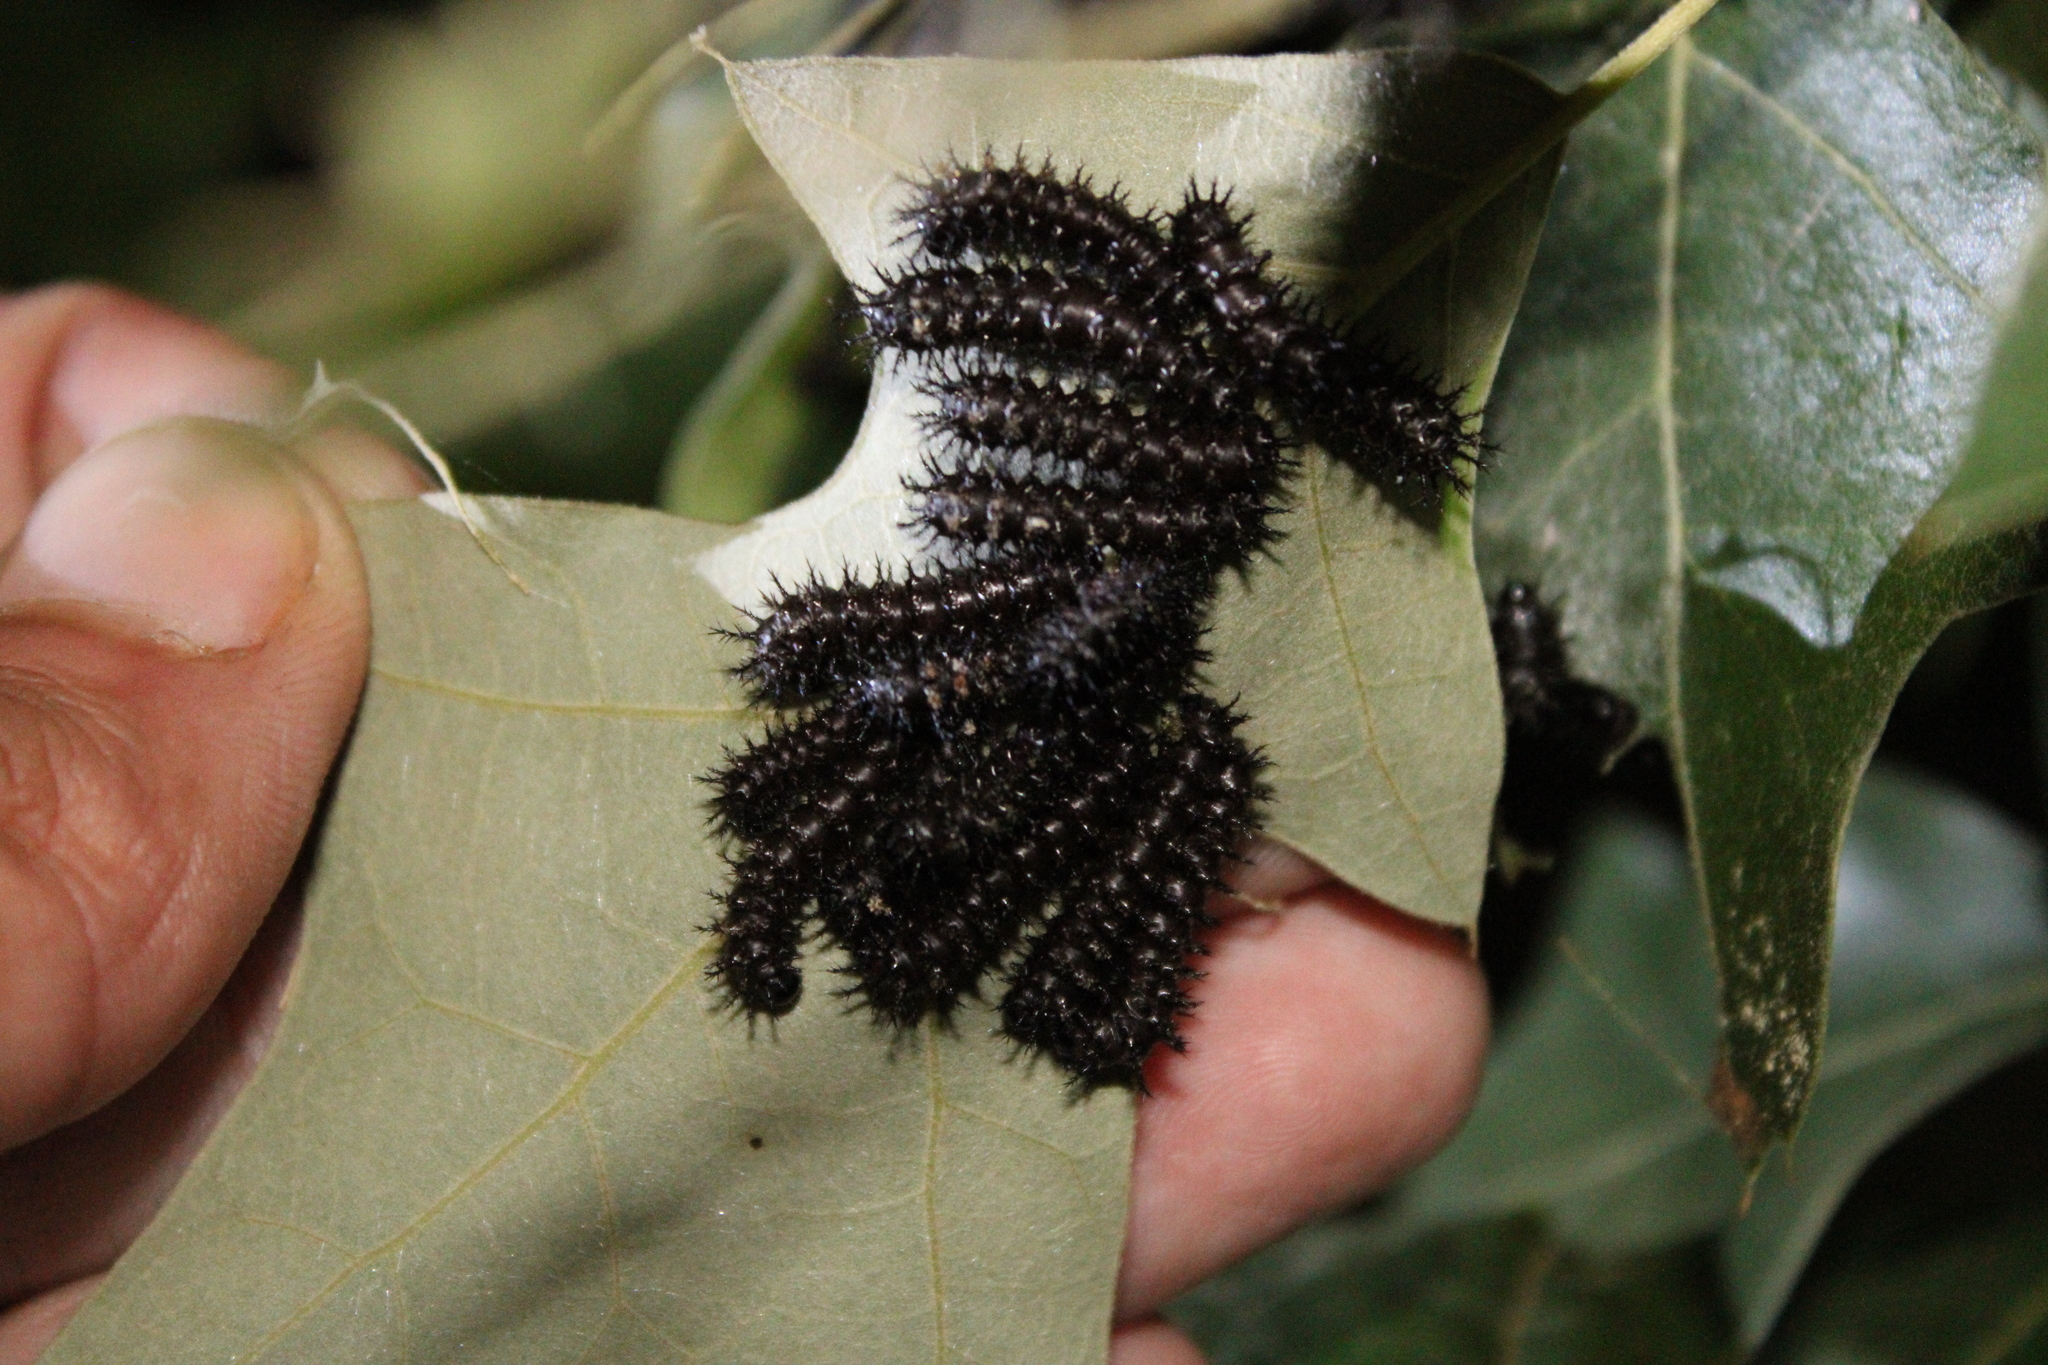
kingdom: Animalia
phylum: Arthropoda
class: Insecta
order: Lepidoptera
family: Saturniidae
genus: Hemileuca
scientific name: Hemileuca maia
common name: Eastern buckmoth
